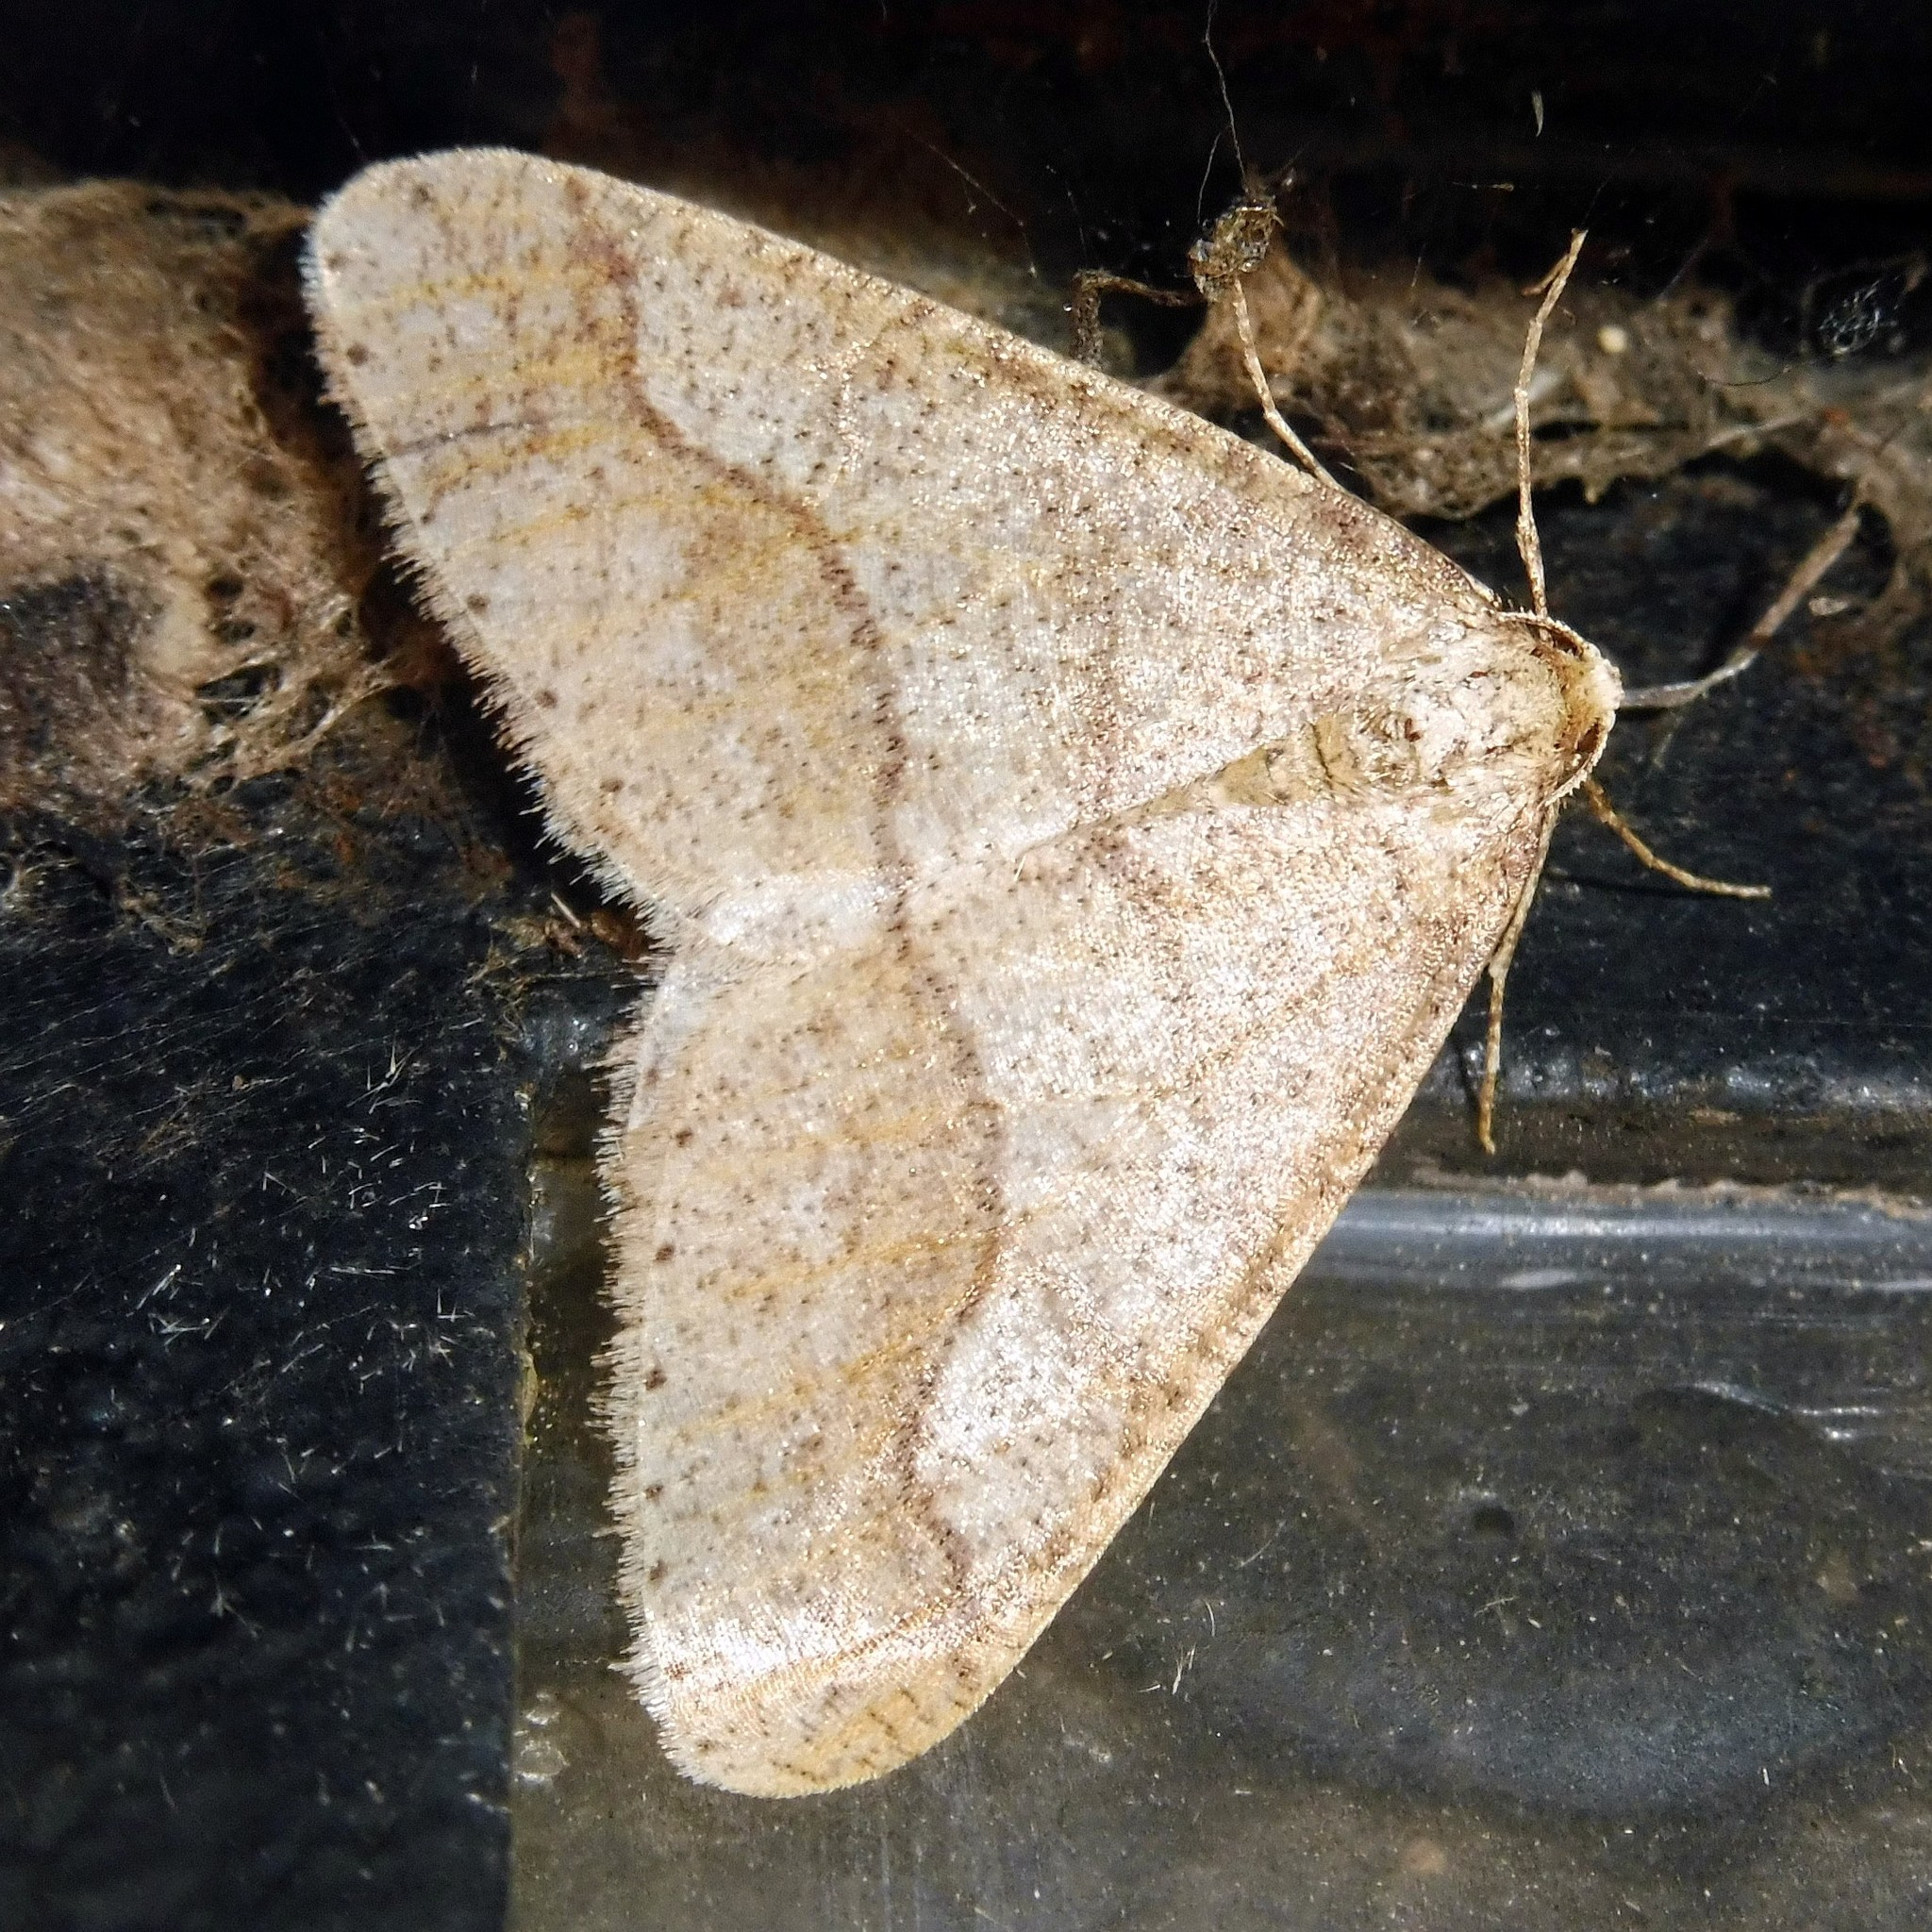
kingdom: Animalia
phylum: Arthropoda
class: Insecta
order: Lepidoptera
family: Geometridae
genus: Agriopis
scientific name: Agriopis marginaria
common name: Dotted border
